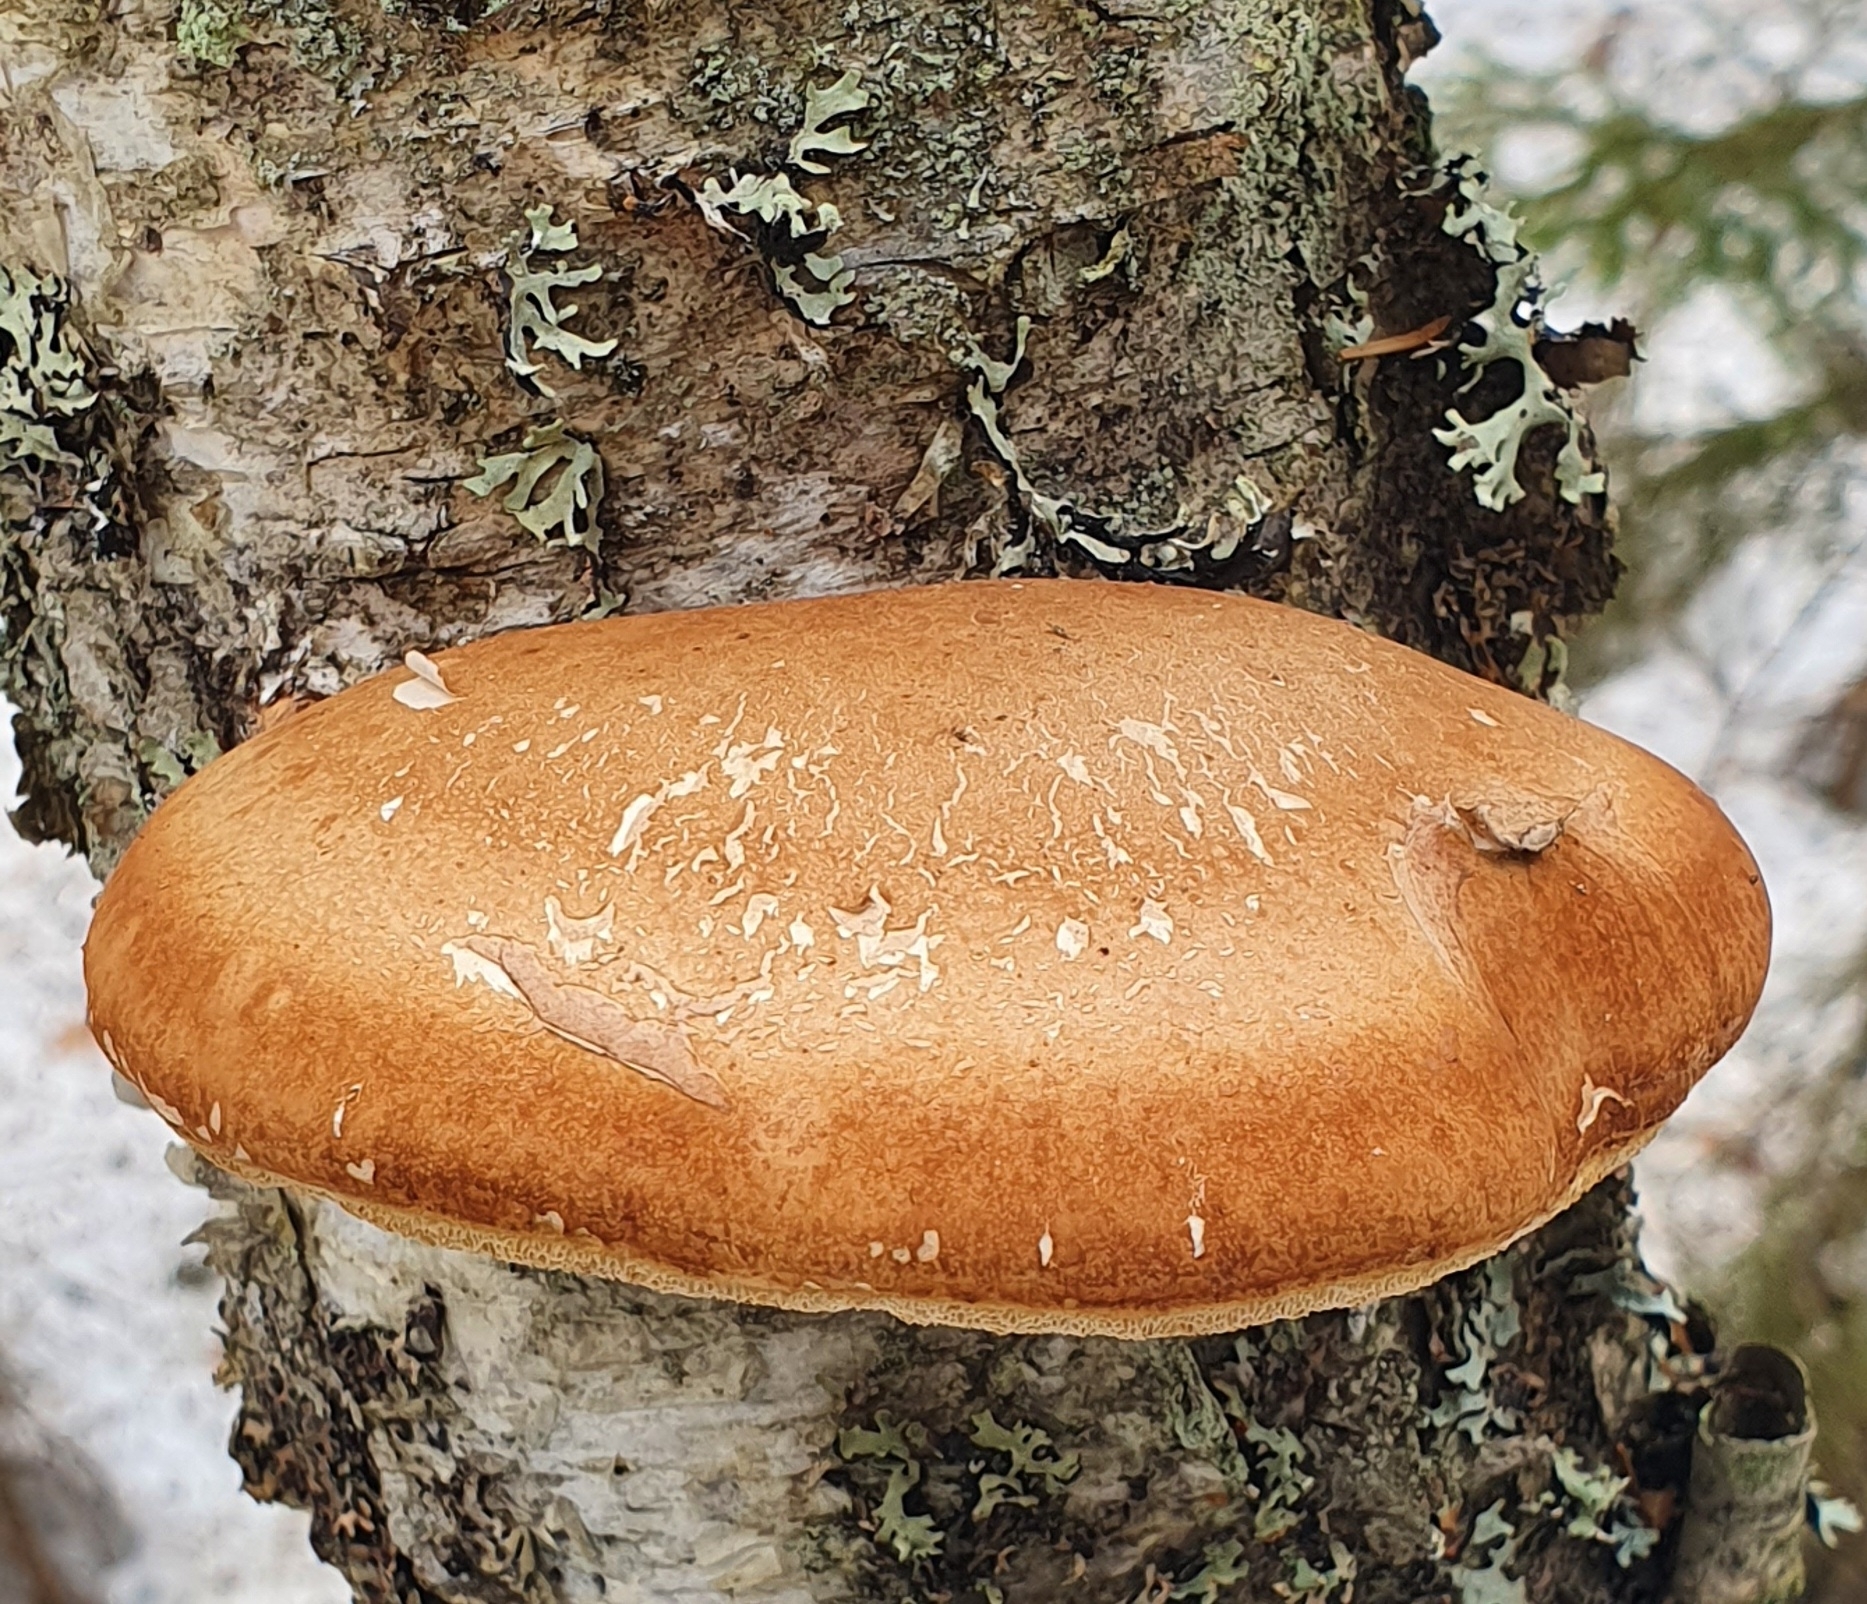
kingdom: Fungi
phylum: Basidiomycota
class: Agaricomycetes
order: Polyporales
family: Fomitopsidaceae
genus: Fomitopsis
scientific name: Fomitopsis betulina
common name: Birch polypore
